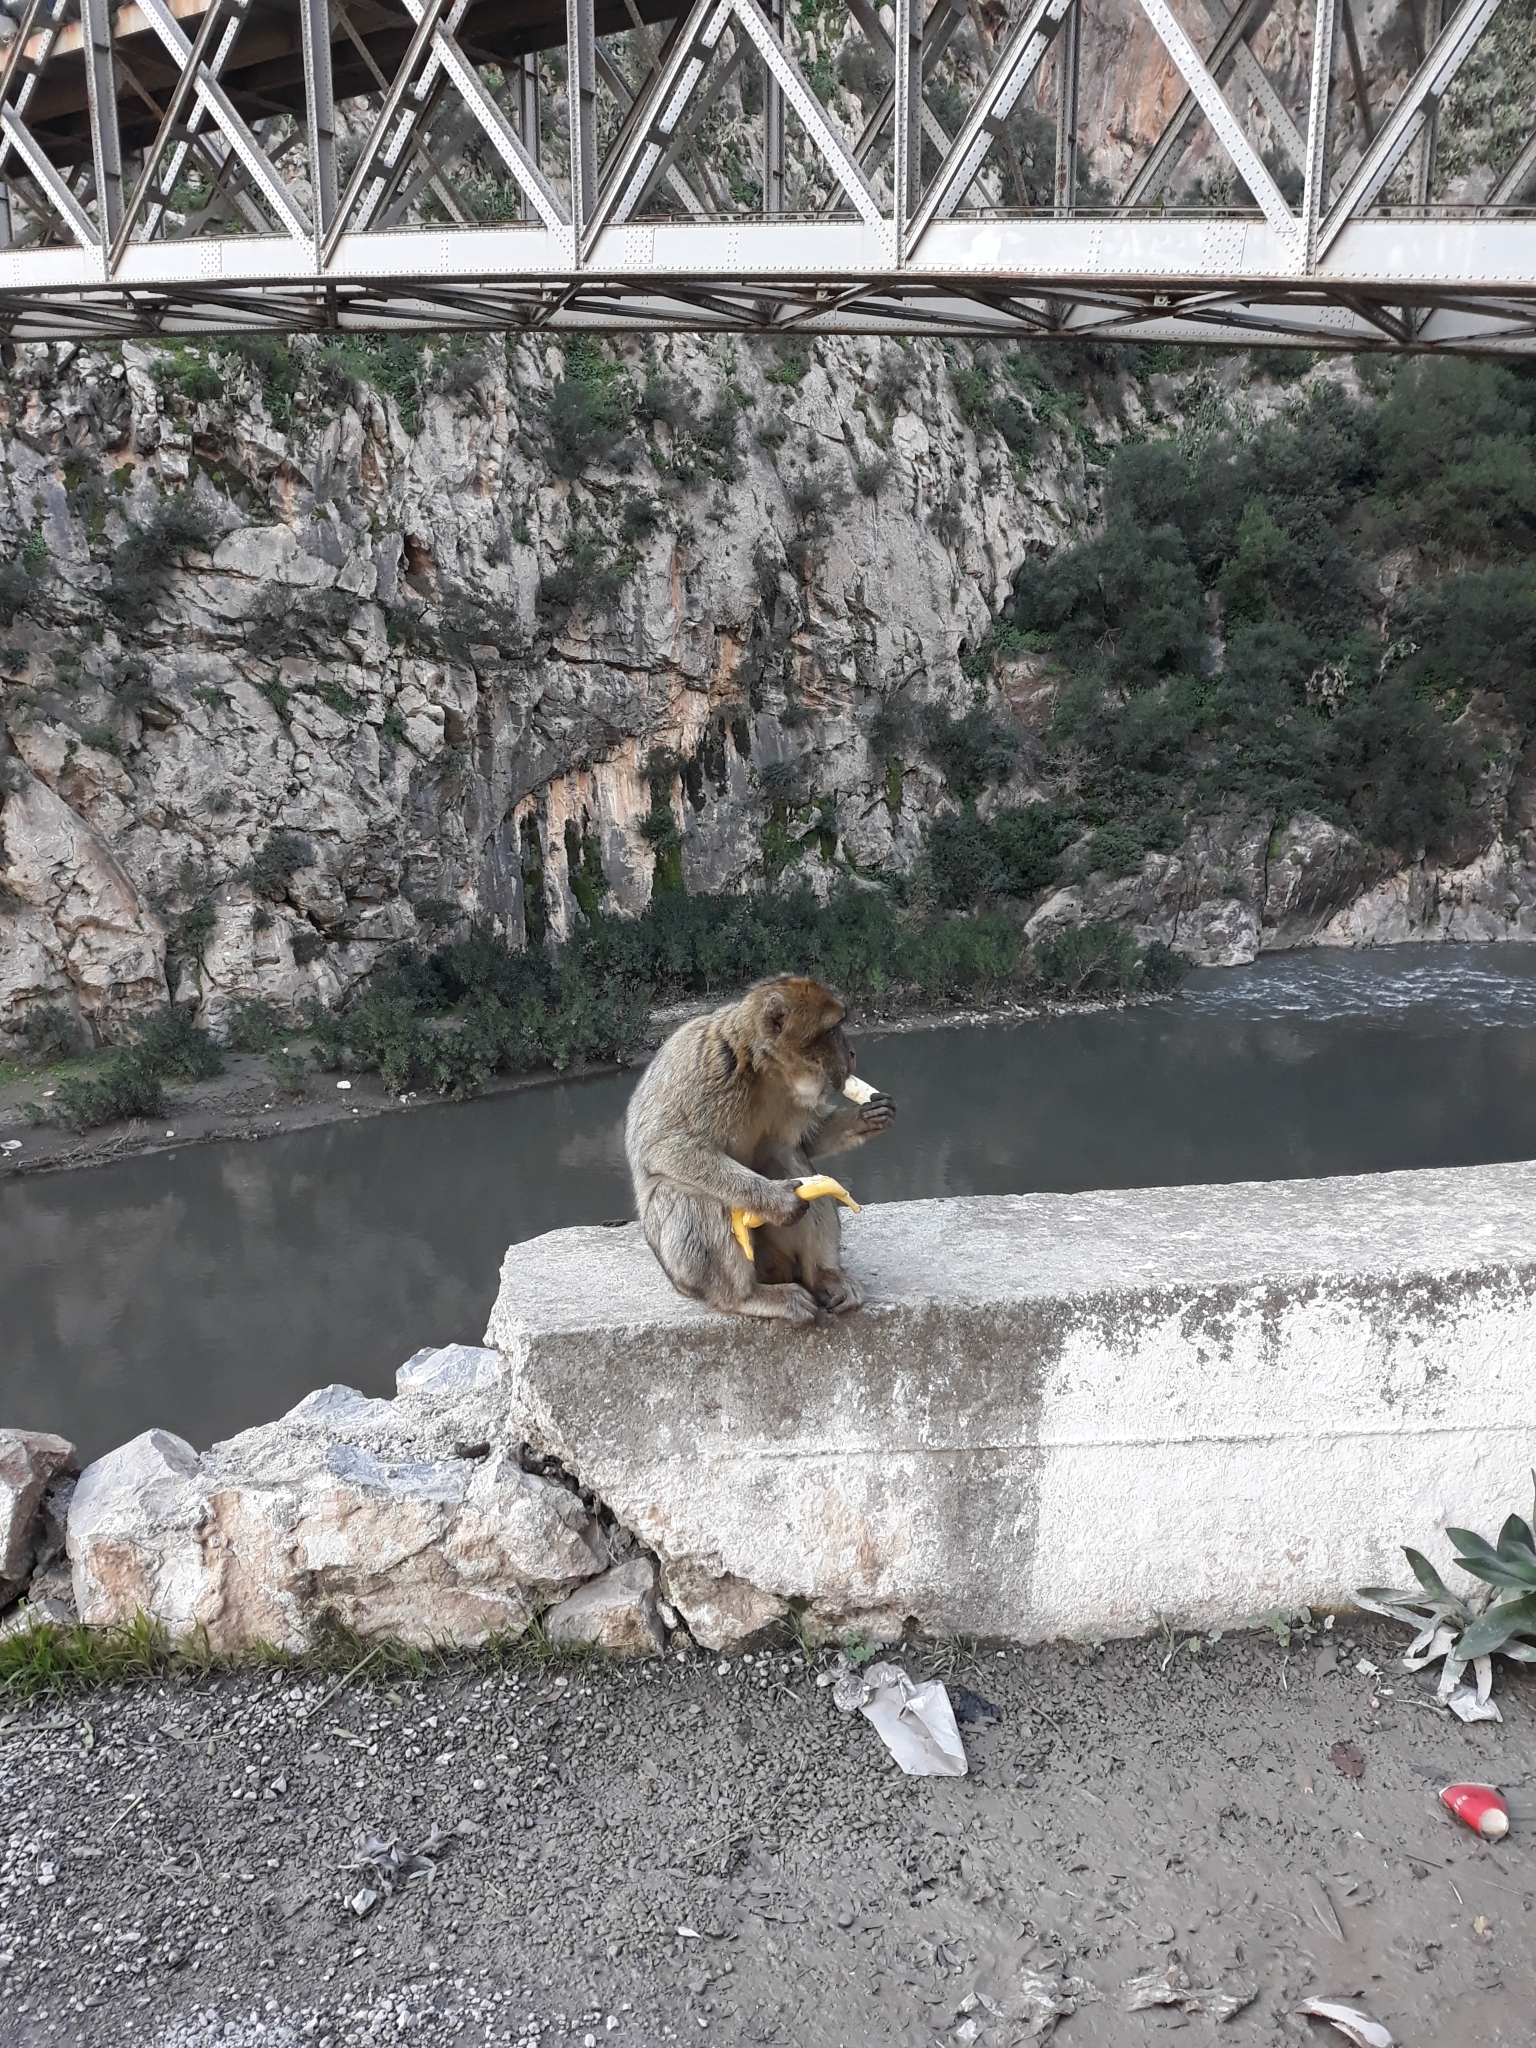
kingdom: Animalia
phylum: Chordata
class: Mammalia
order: Primates
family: Cercopithecidae
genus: Macaca
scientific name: Macaca sylvanus
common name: Barbary macaque
